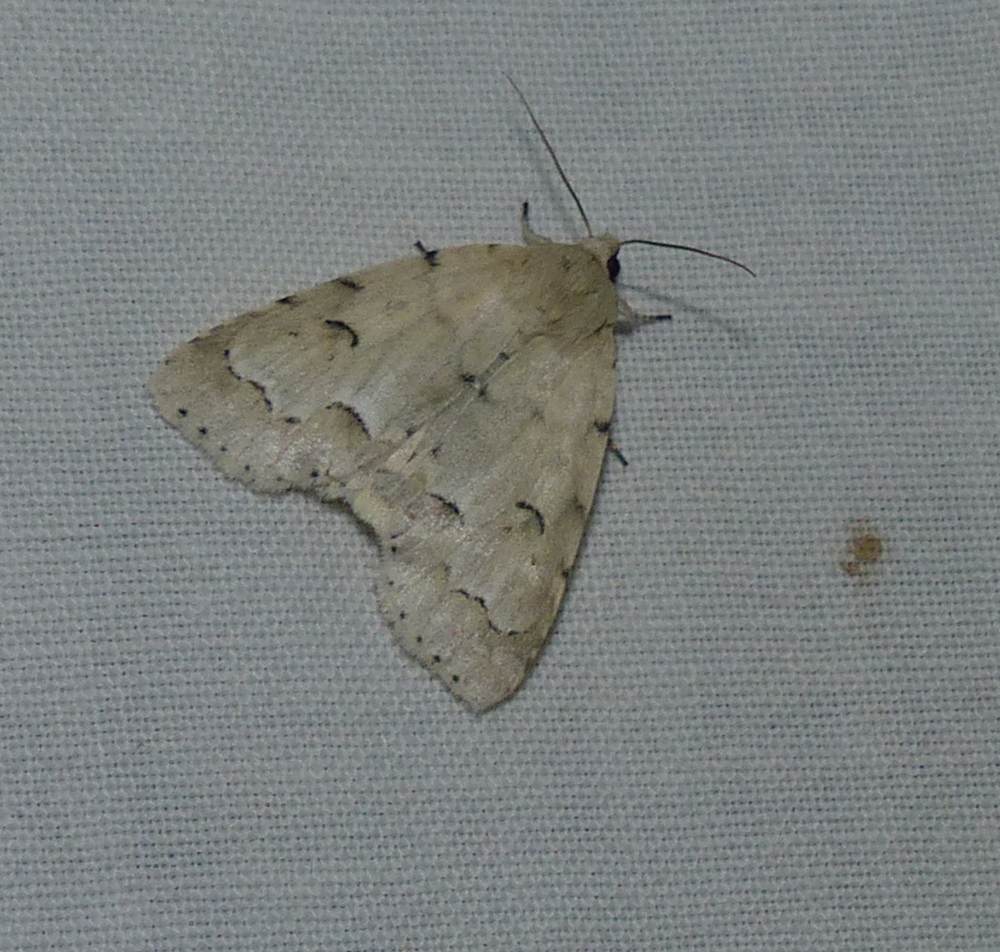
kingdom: Animalia
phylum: Arthropoda
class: Insecta
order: Lepidoptera
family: Noctuidae
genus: Acronicta
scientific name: Acronicta innotata
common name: Unmarked dagger
